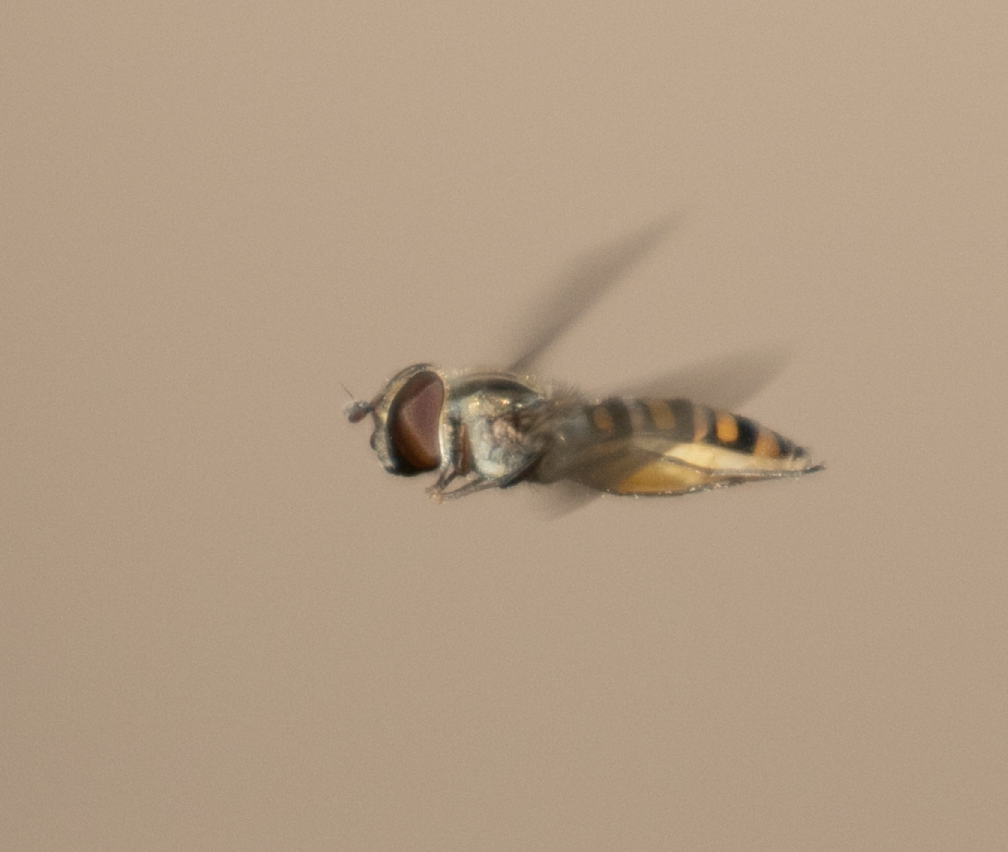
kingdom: Animalia
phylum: Arthropoda
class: Insecta
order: Diptera
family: Syrphidae
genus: Episyrphus
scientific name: Episyrphus balteatus
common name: Marmalade hoverfly
